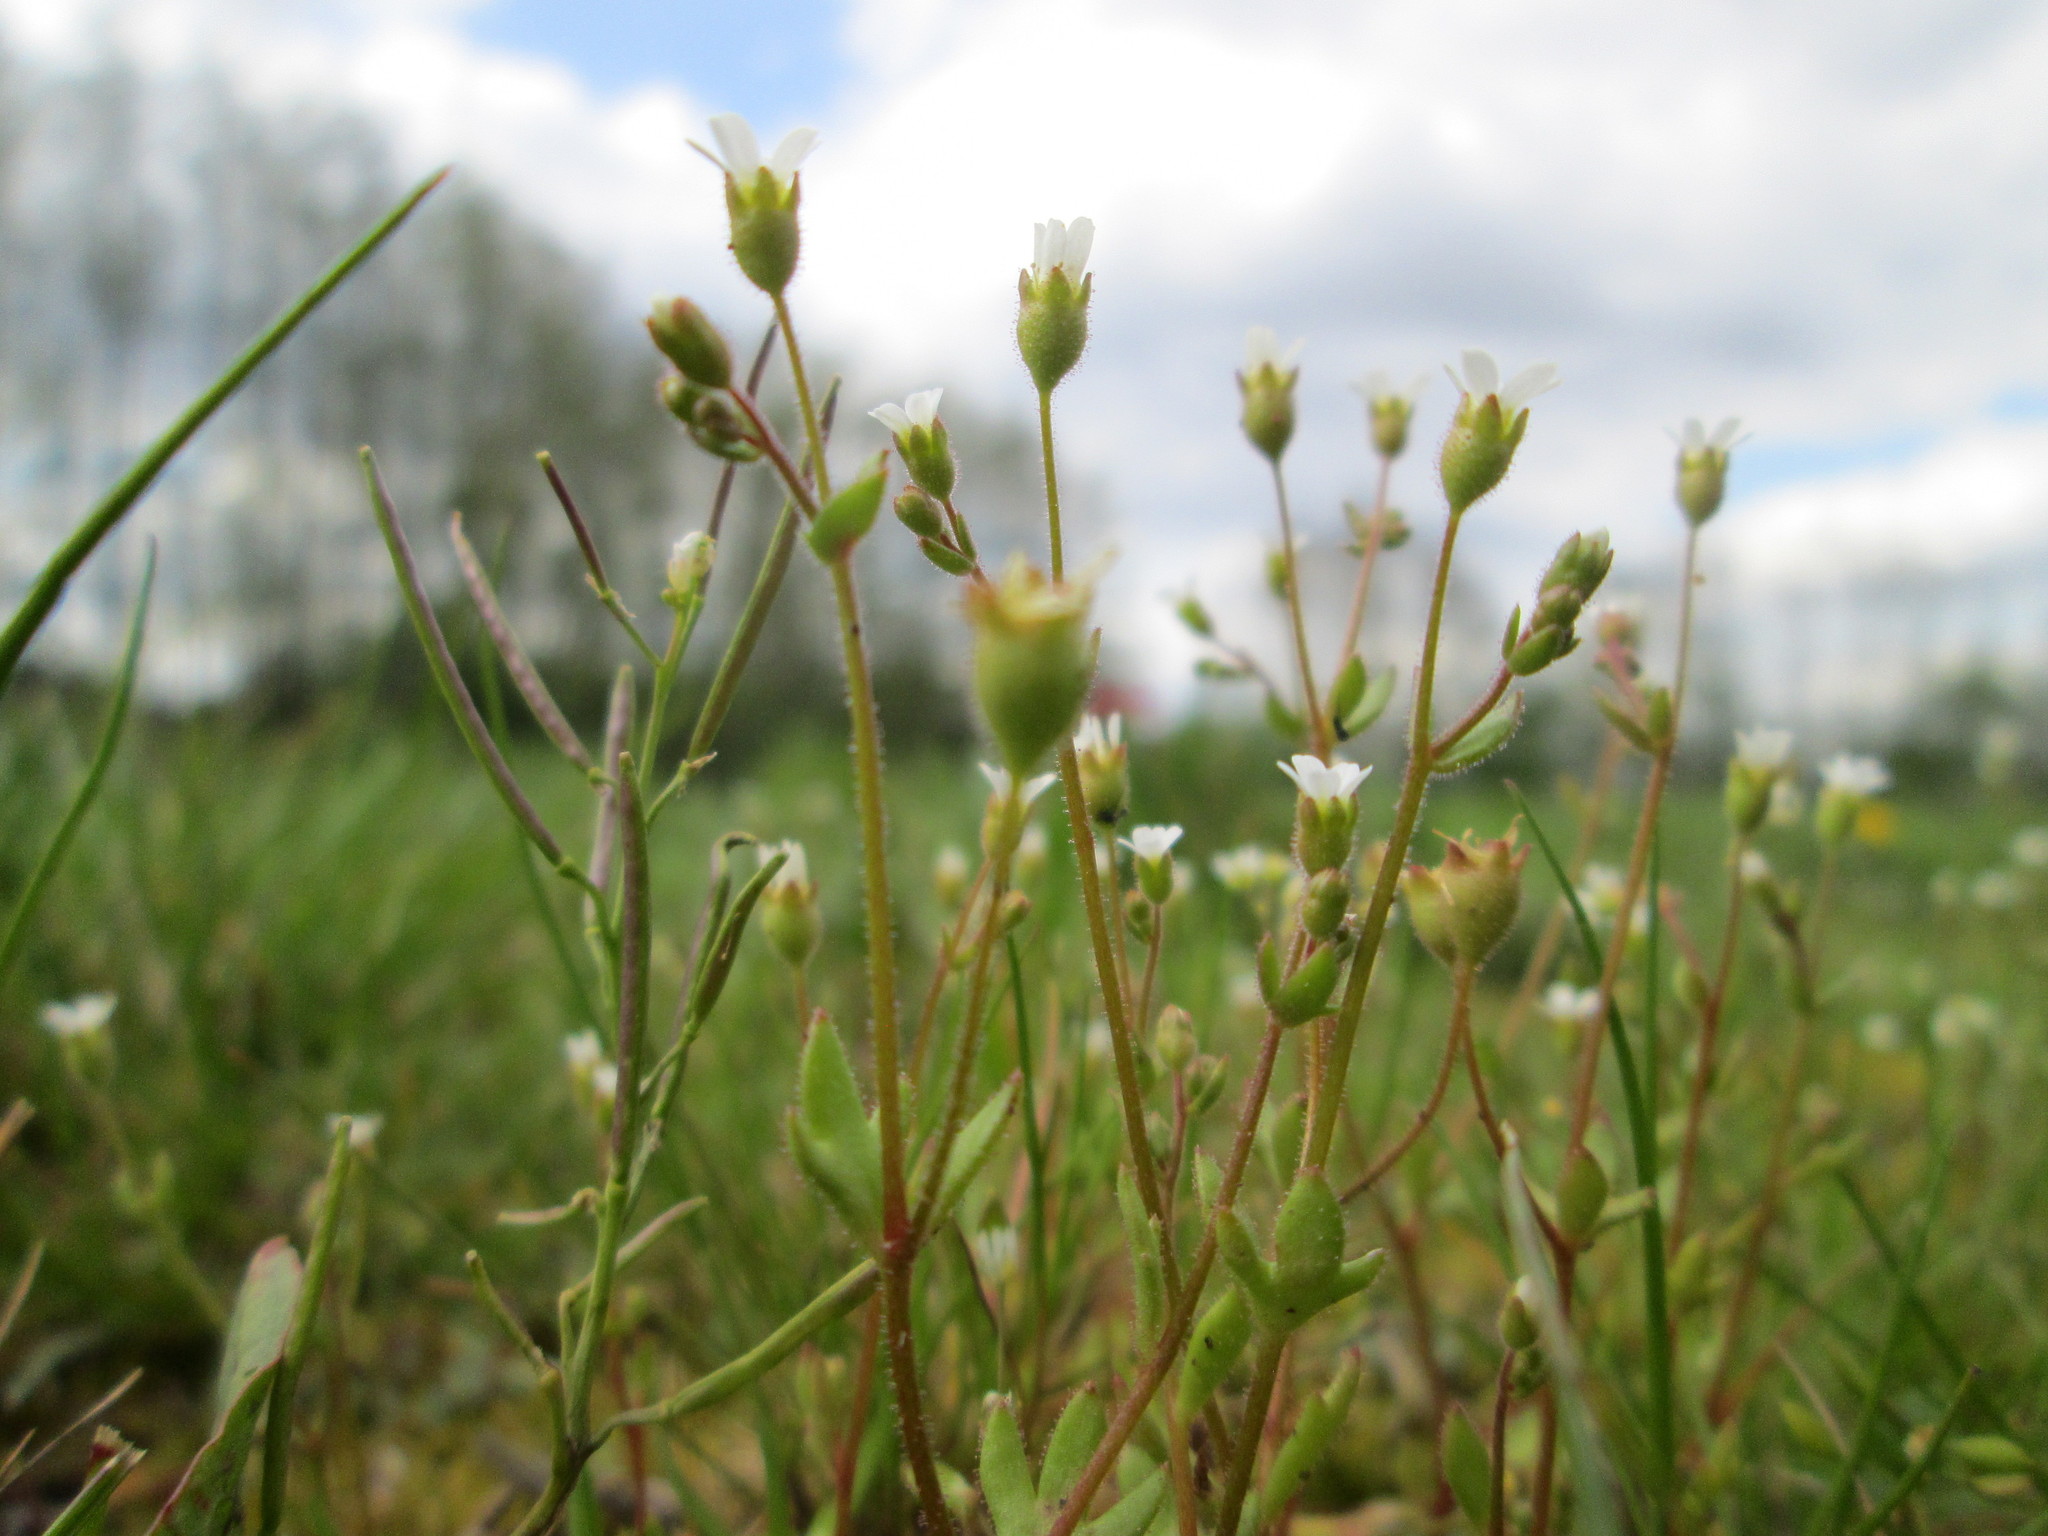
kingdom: Plantae
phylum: Tracheophyta
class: Magnoliopsida
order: Saxifragales
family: Saxifragaceae
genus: Saxifraga
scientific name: Saxifraga tridactylites
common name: Rue-leaved saxifrage
